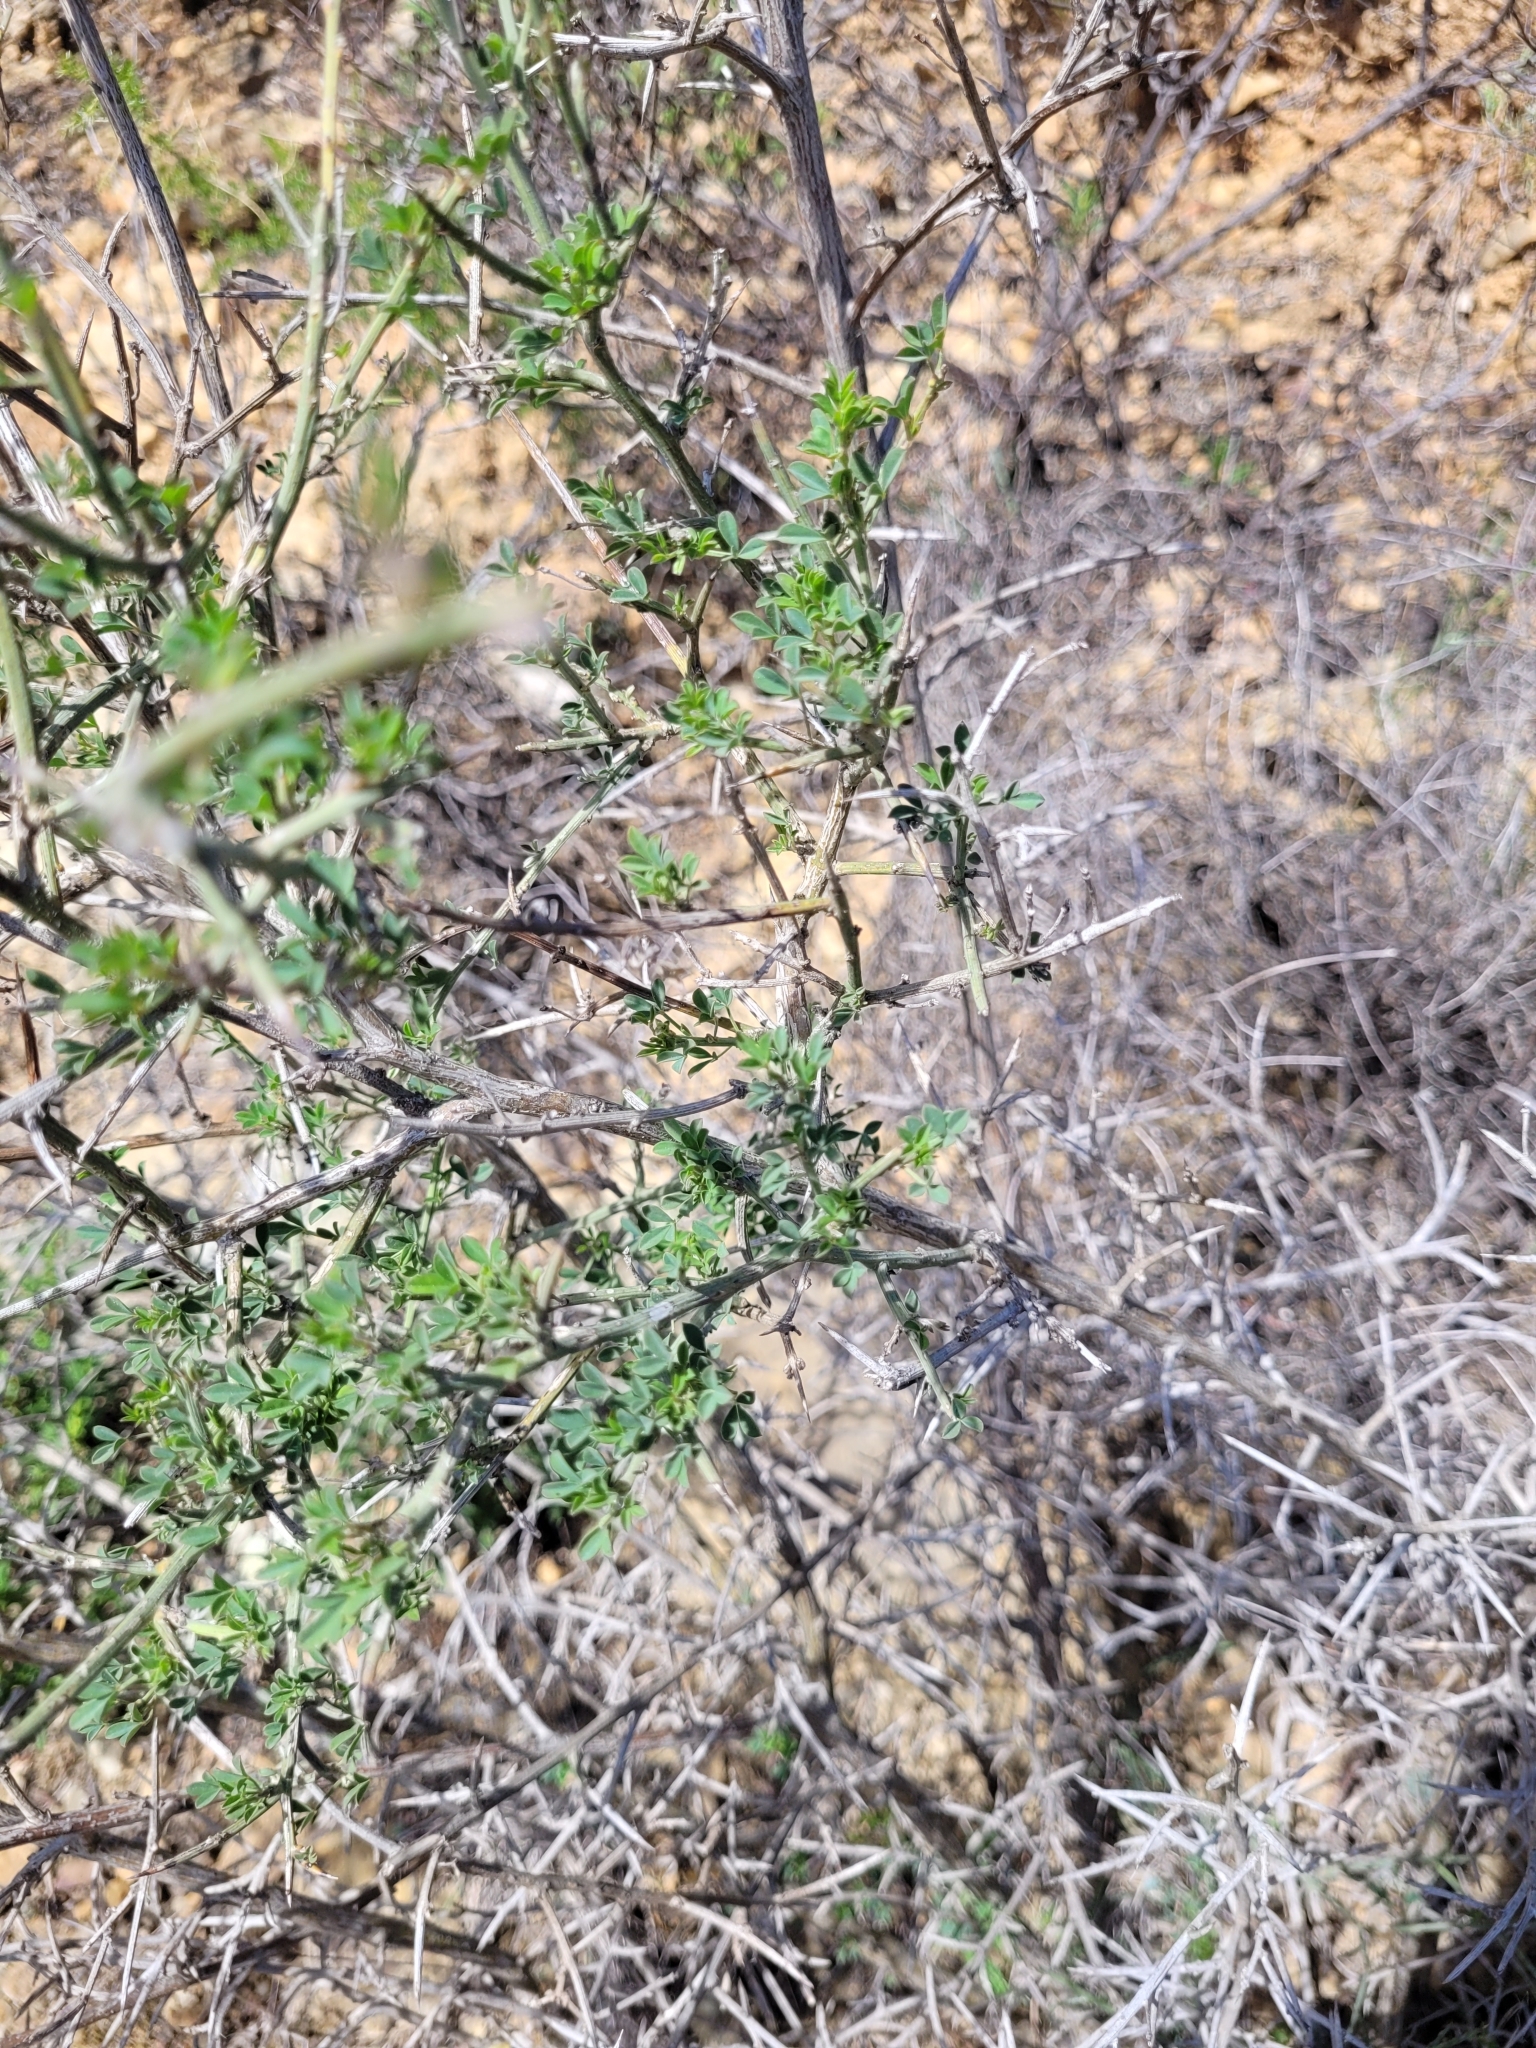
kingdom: Plantae
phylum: Tracheophyta
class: Magnoliopsida
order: Fabales
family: Fabaceae
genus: Calicotome
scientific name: Calicotome spinosa
